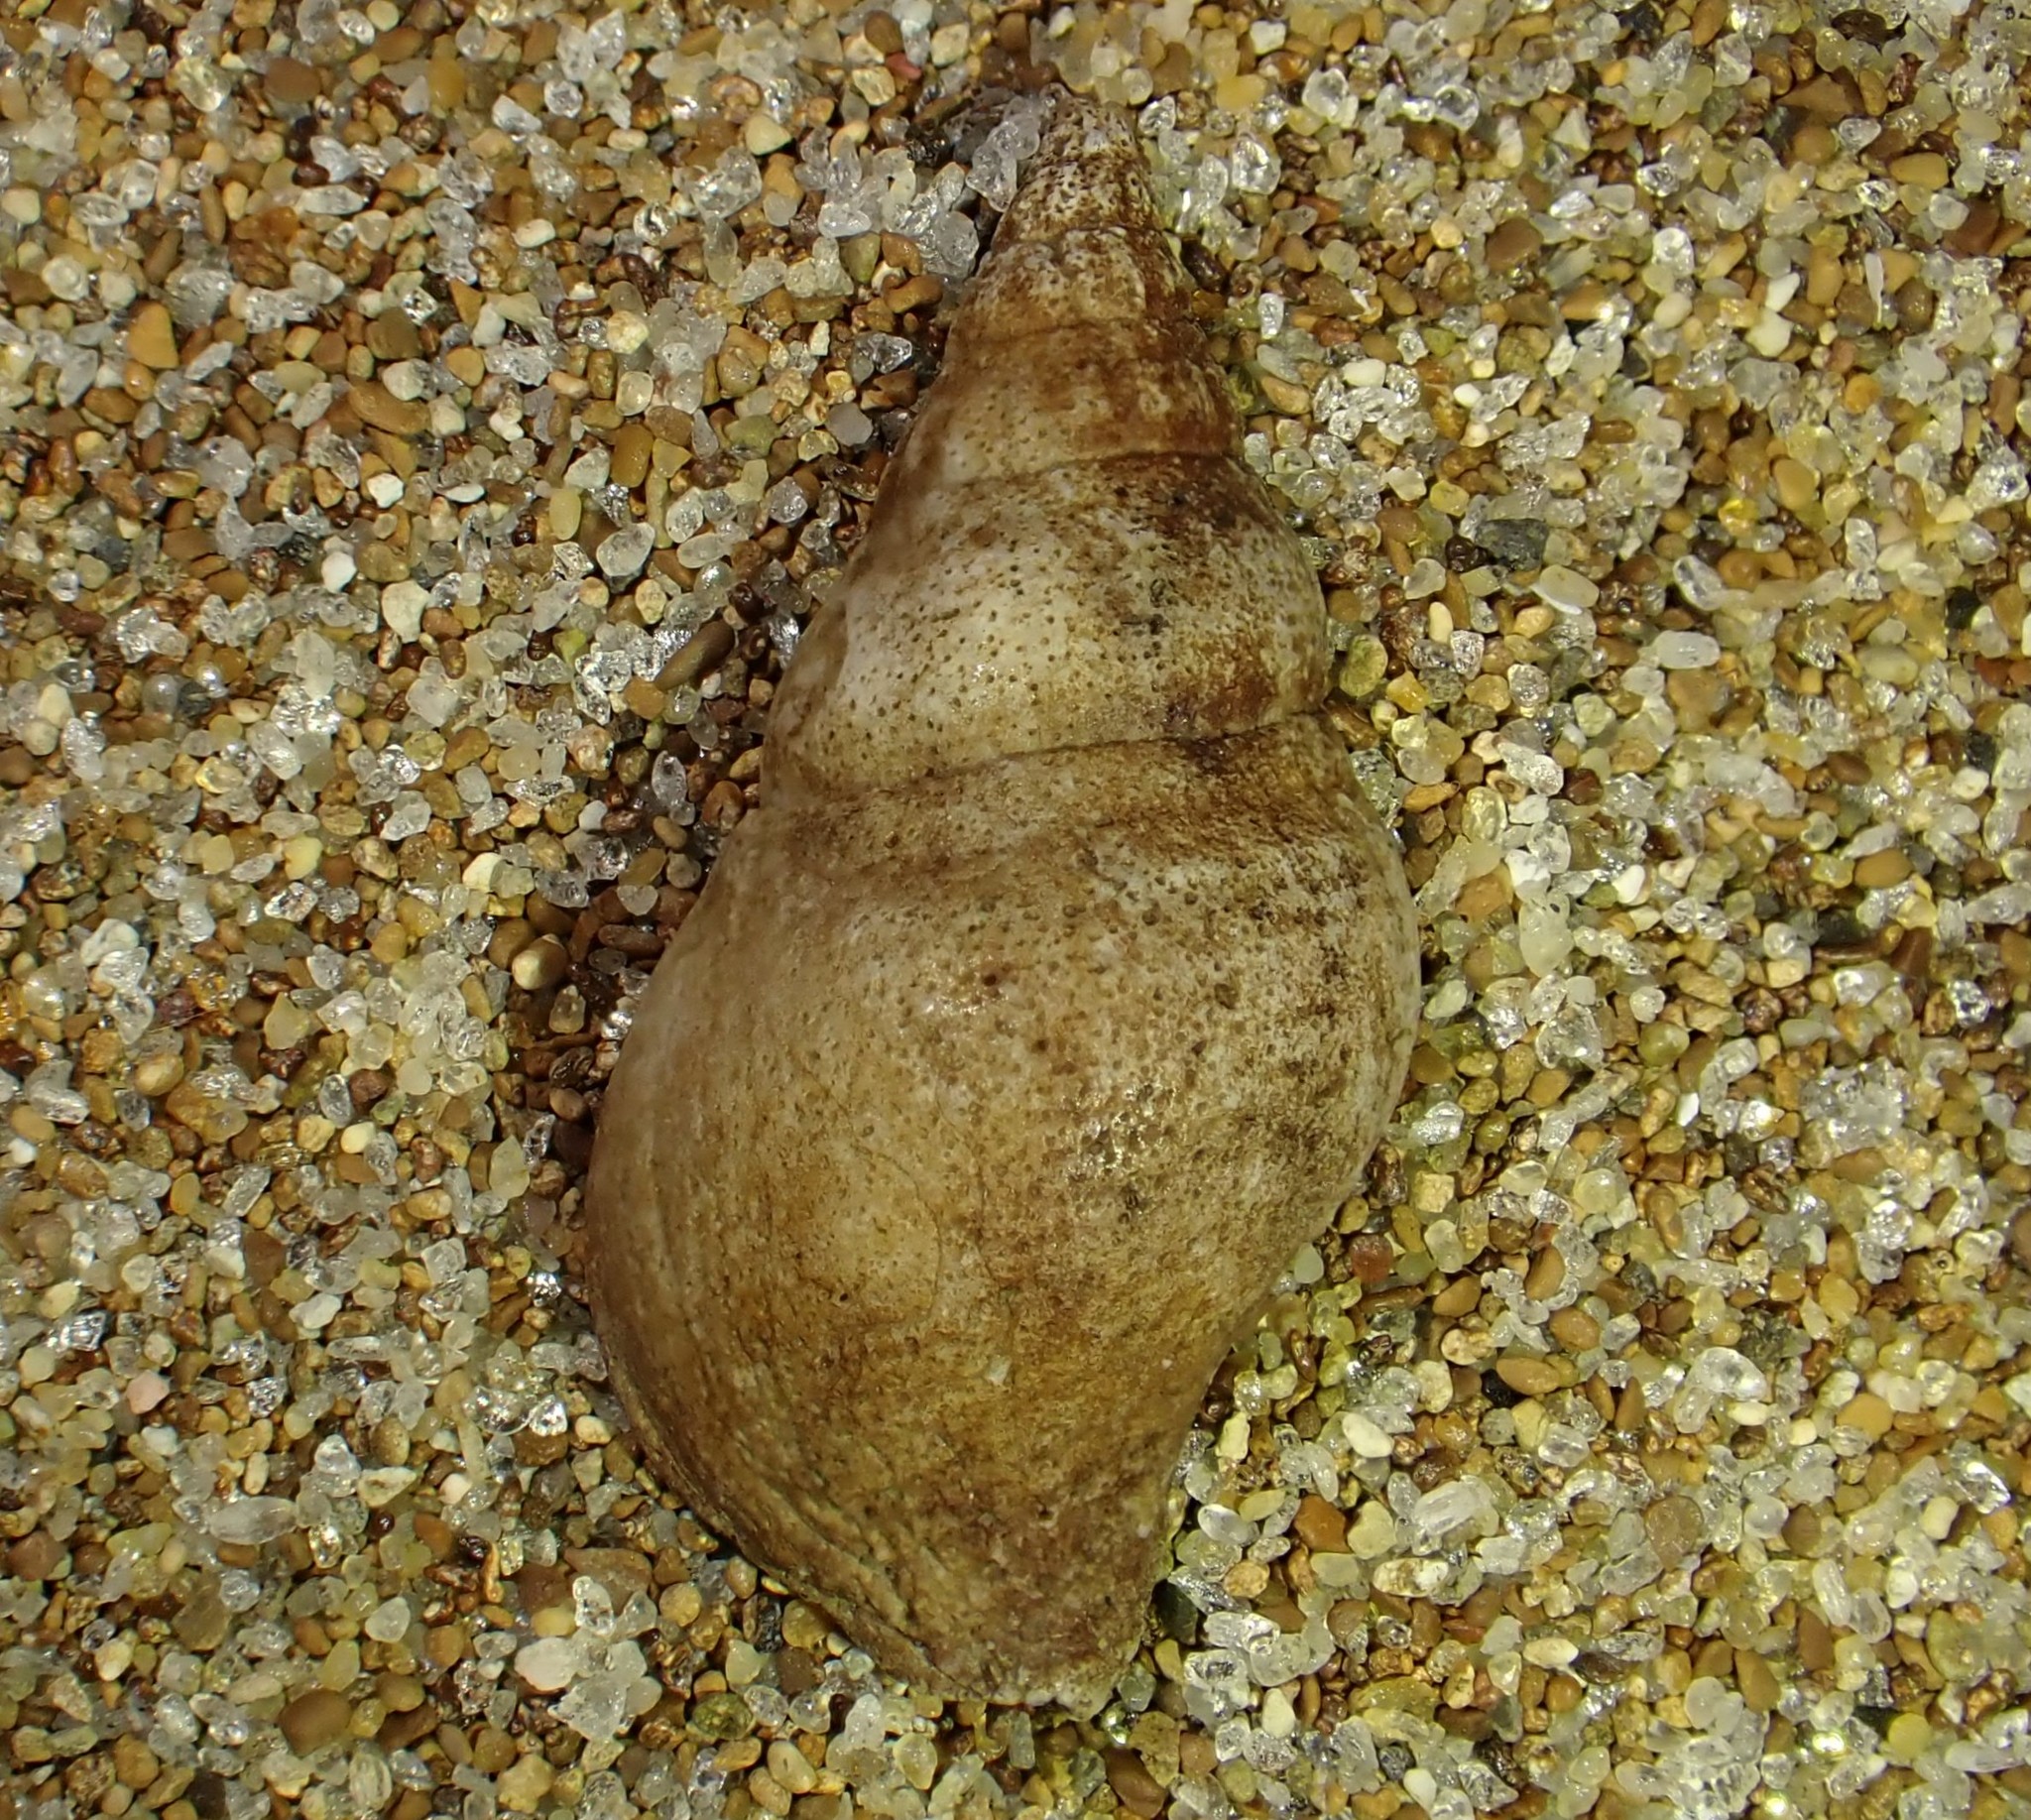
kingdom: Animalia
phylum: Mollusca
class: Gastropoda
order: Neogastropoda
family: Tudiclidae
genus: Buccinulum
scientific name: Buccinulum vittatum
